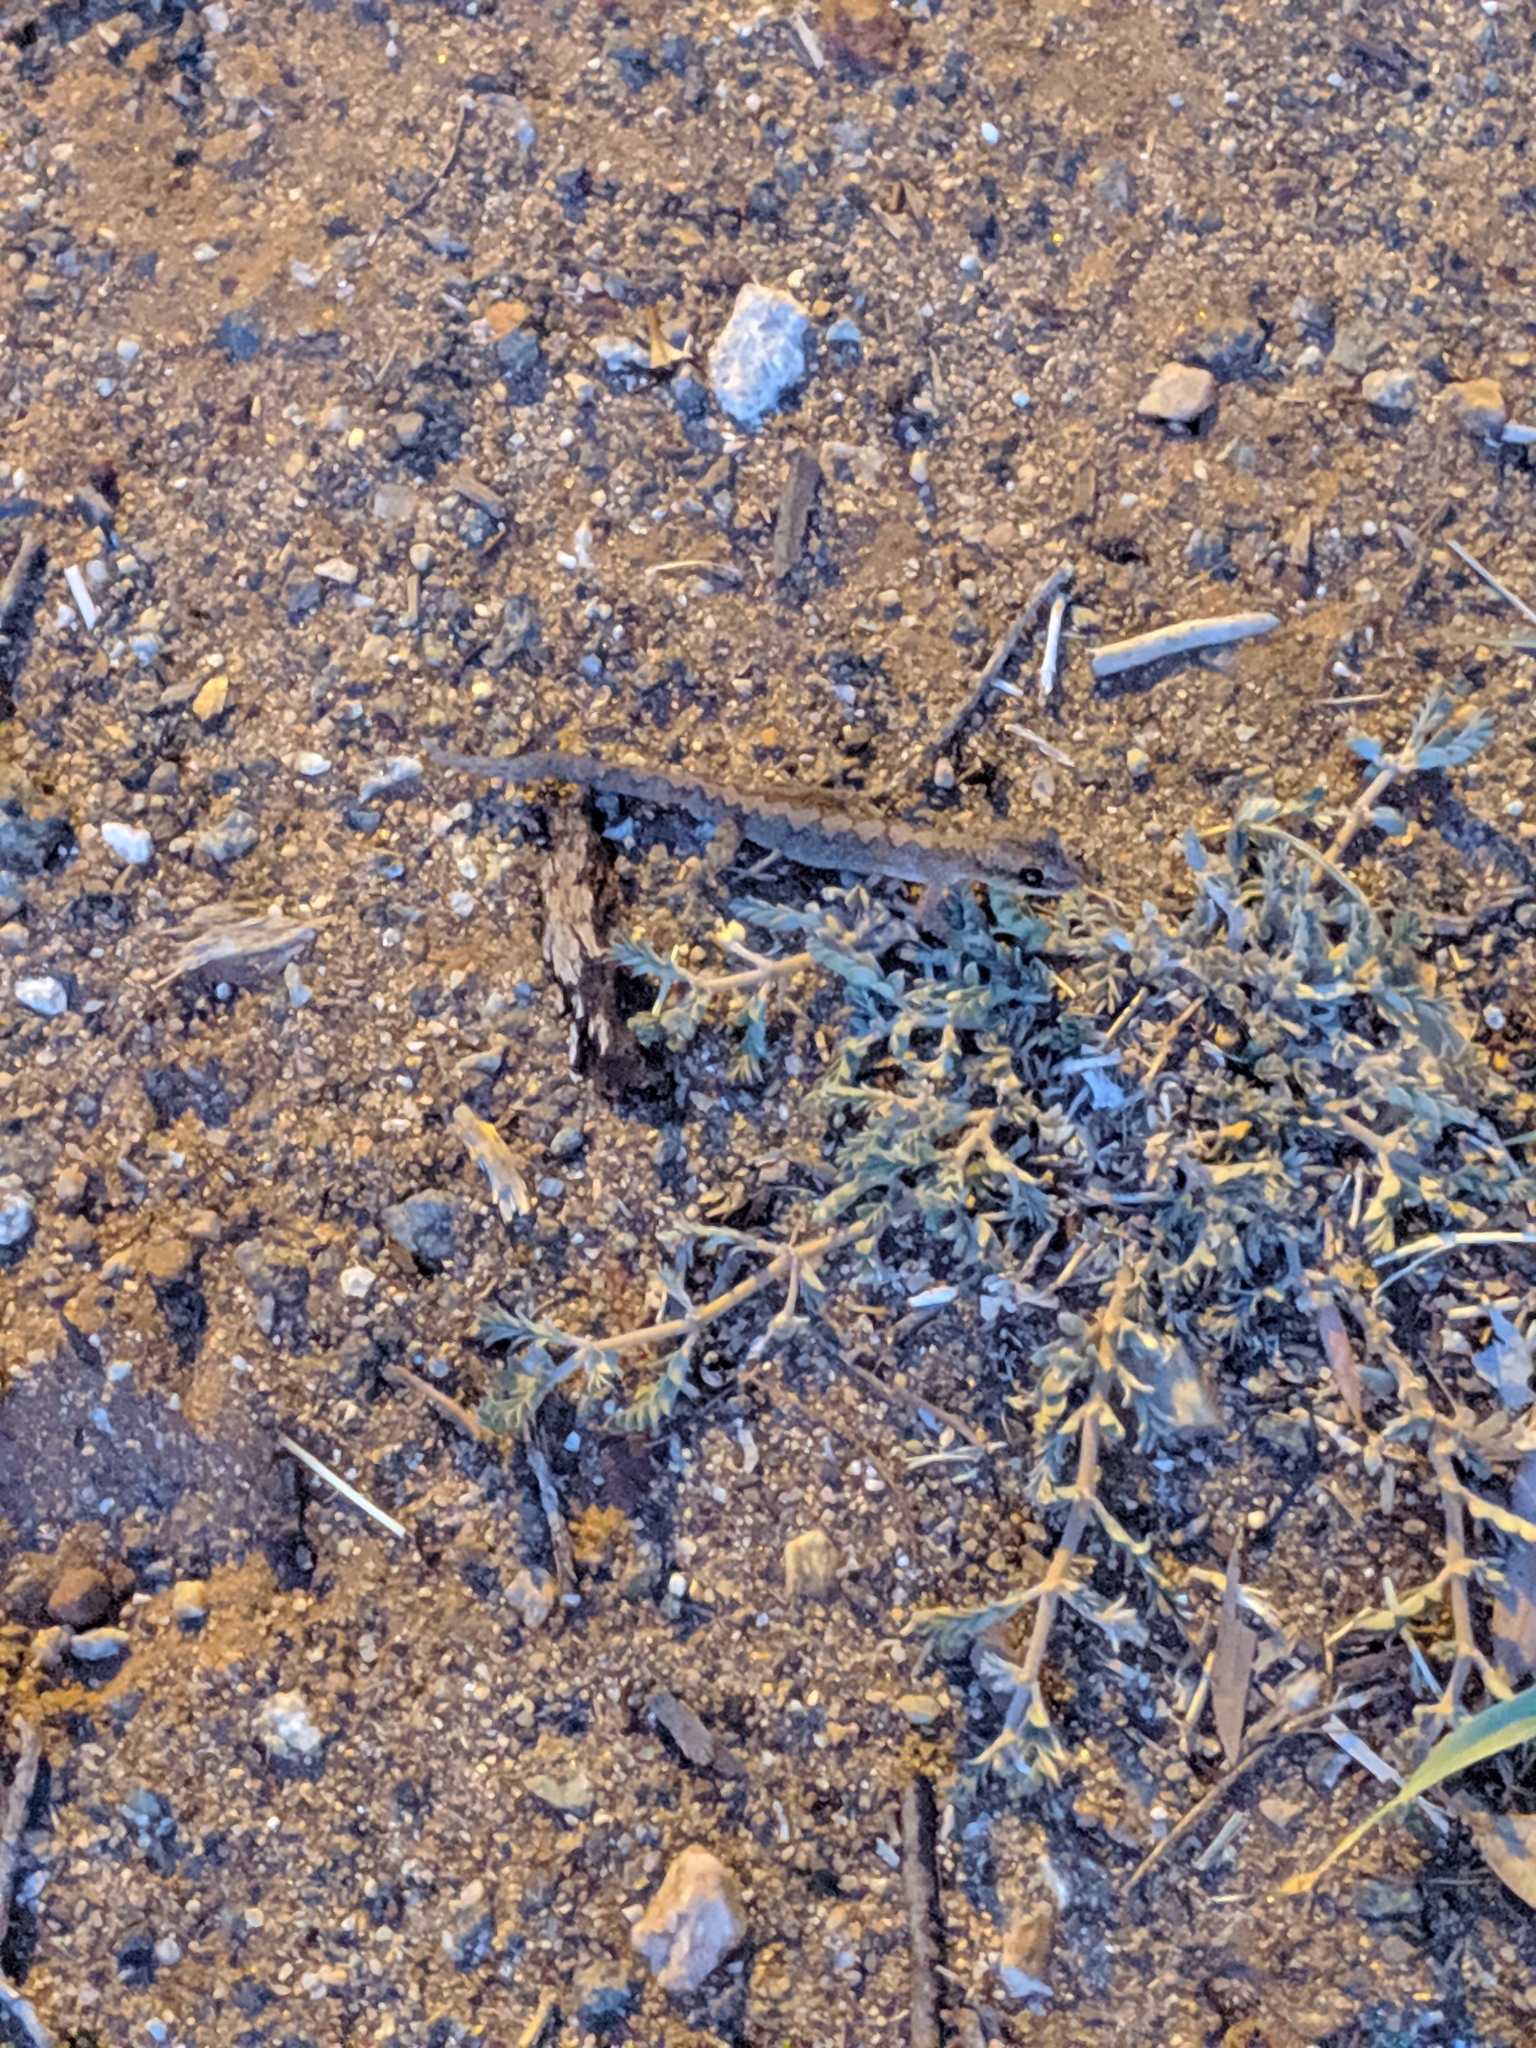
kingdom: Animalia
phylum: Chordata
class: Squamata
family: Diplodactylidae
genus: Amalosia
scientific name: Amalosia rhombifer
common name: Zig-zag gecko
